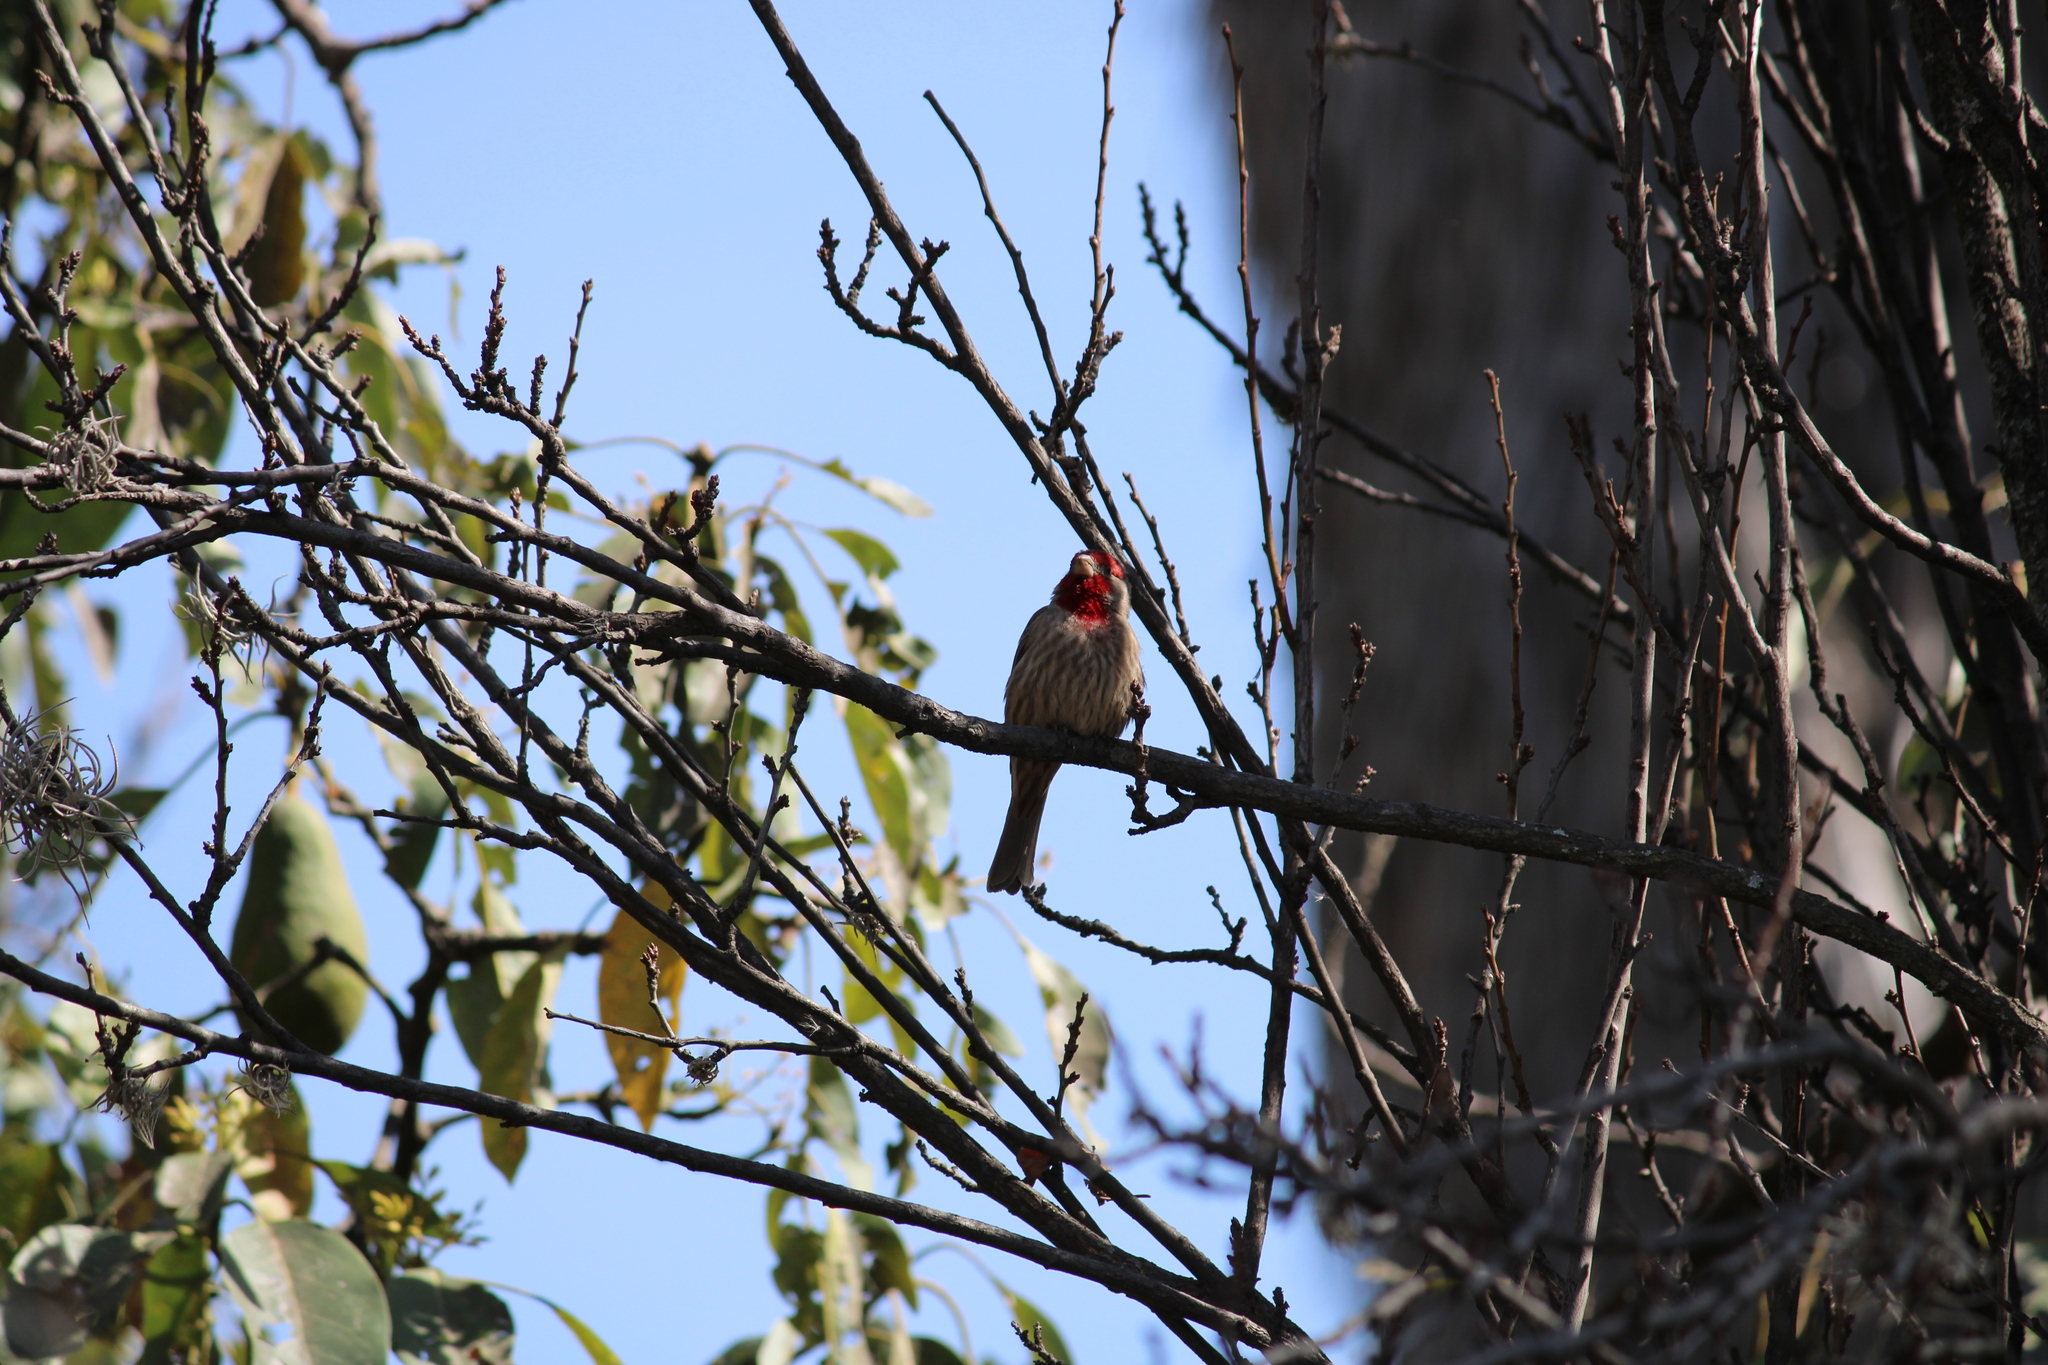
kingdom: Animalia
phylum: Chordata
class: Aves
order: Passeriformes
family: Fringillidae
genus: Haemorhous
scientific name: Haemorhous mexicanus
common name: House finch
